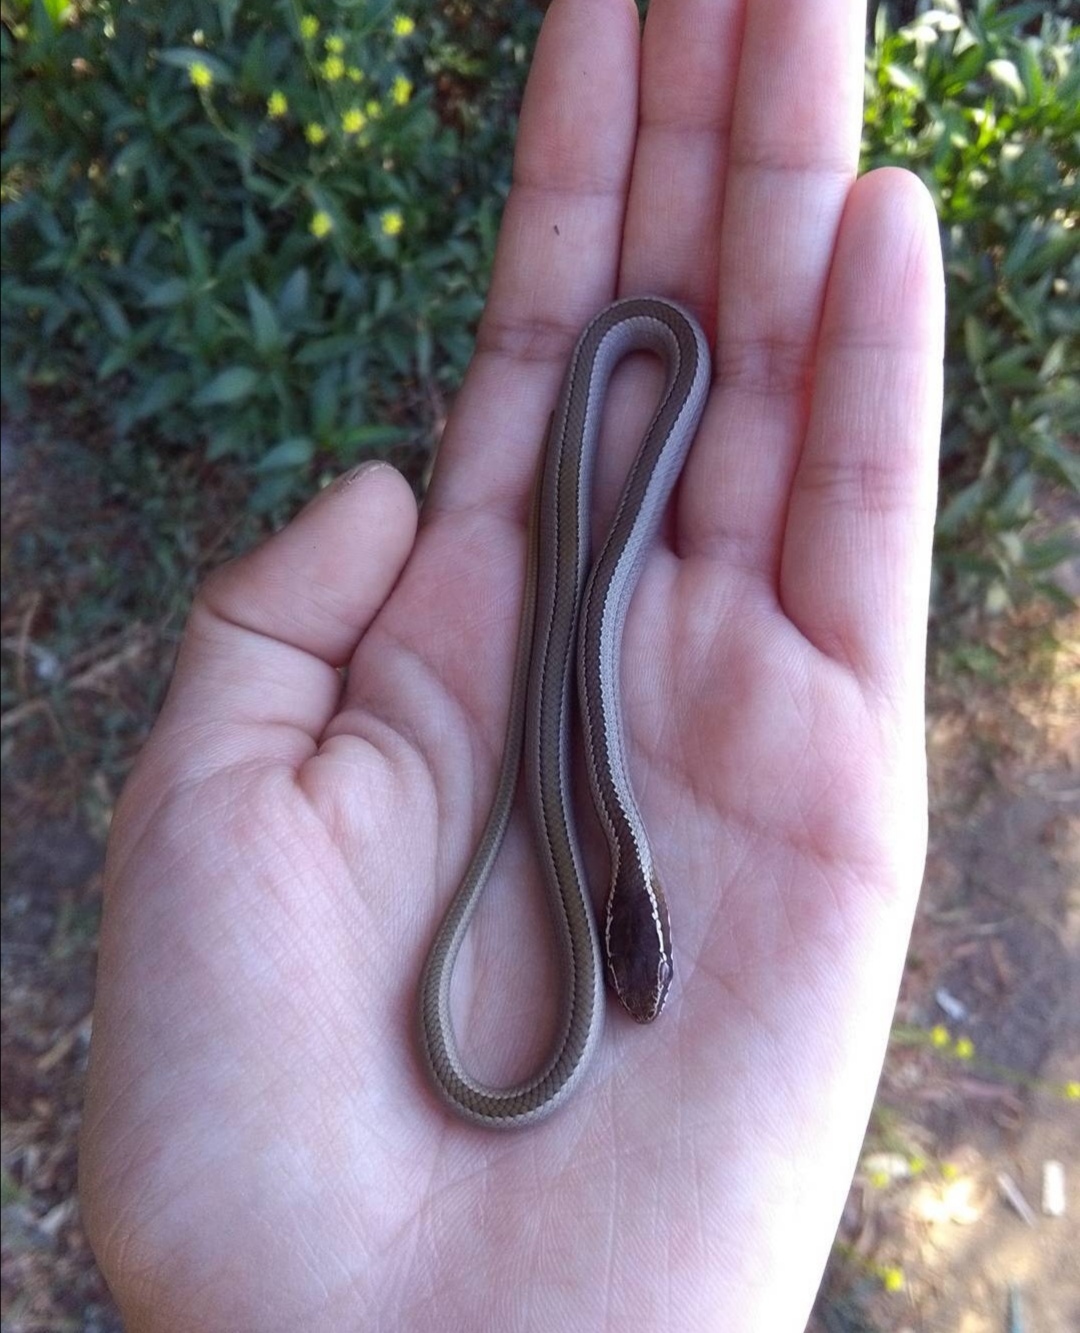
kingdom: Animalia
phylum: Chordata
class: Squamata
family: Colubridae
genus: Philodryas
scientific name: Philodryas chamissonis
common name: Chilean green racer
